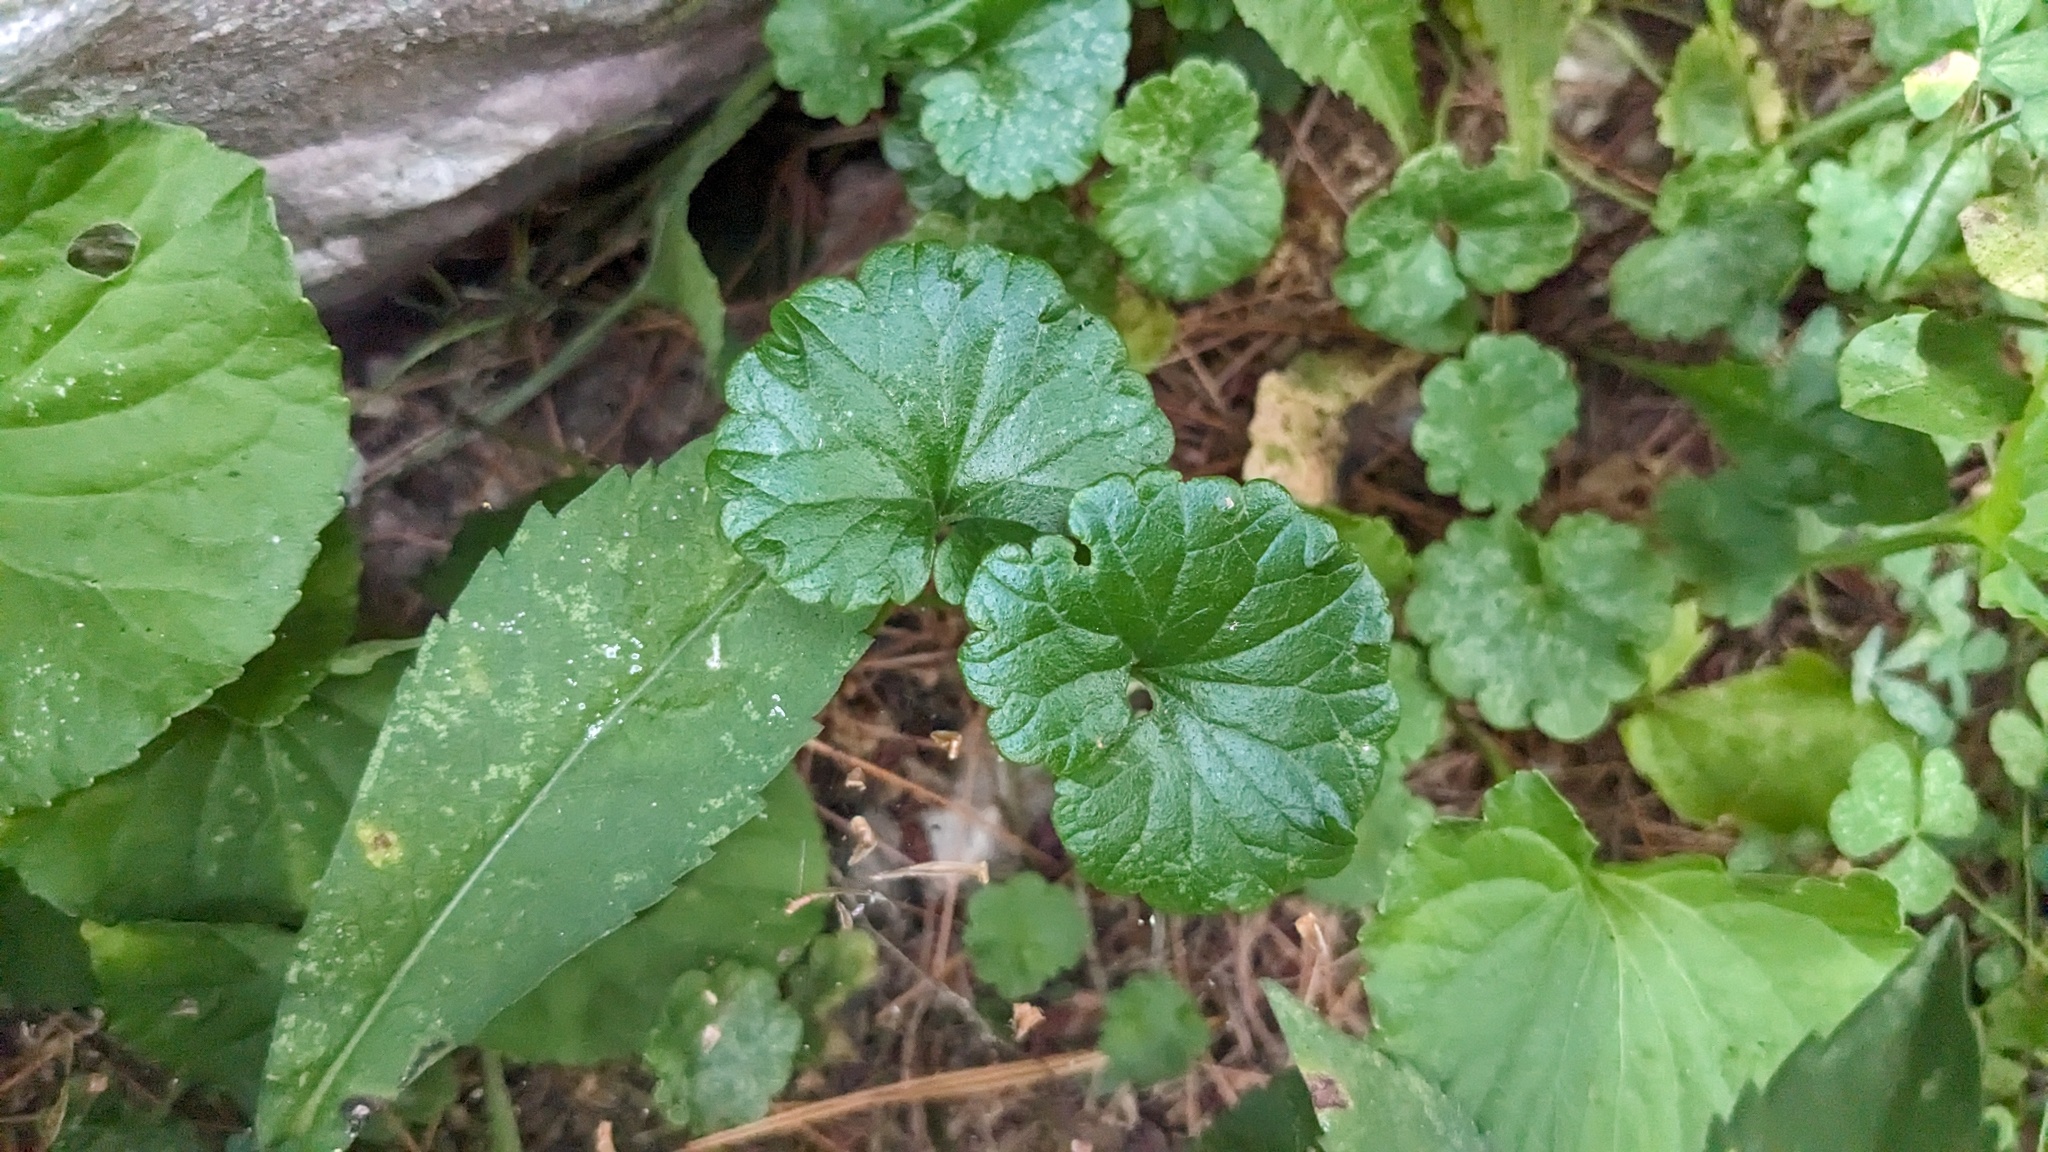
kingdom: Plantae
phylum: Tracheophyta
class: Magnoliopsida
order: Lamiales
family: Lamiaceae
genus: Glechoma
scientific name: Glechoma hederacea
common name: Ground ivy
